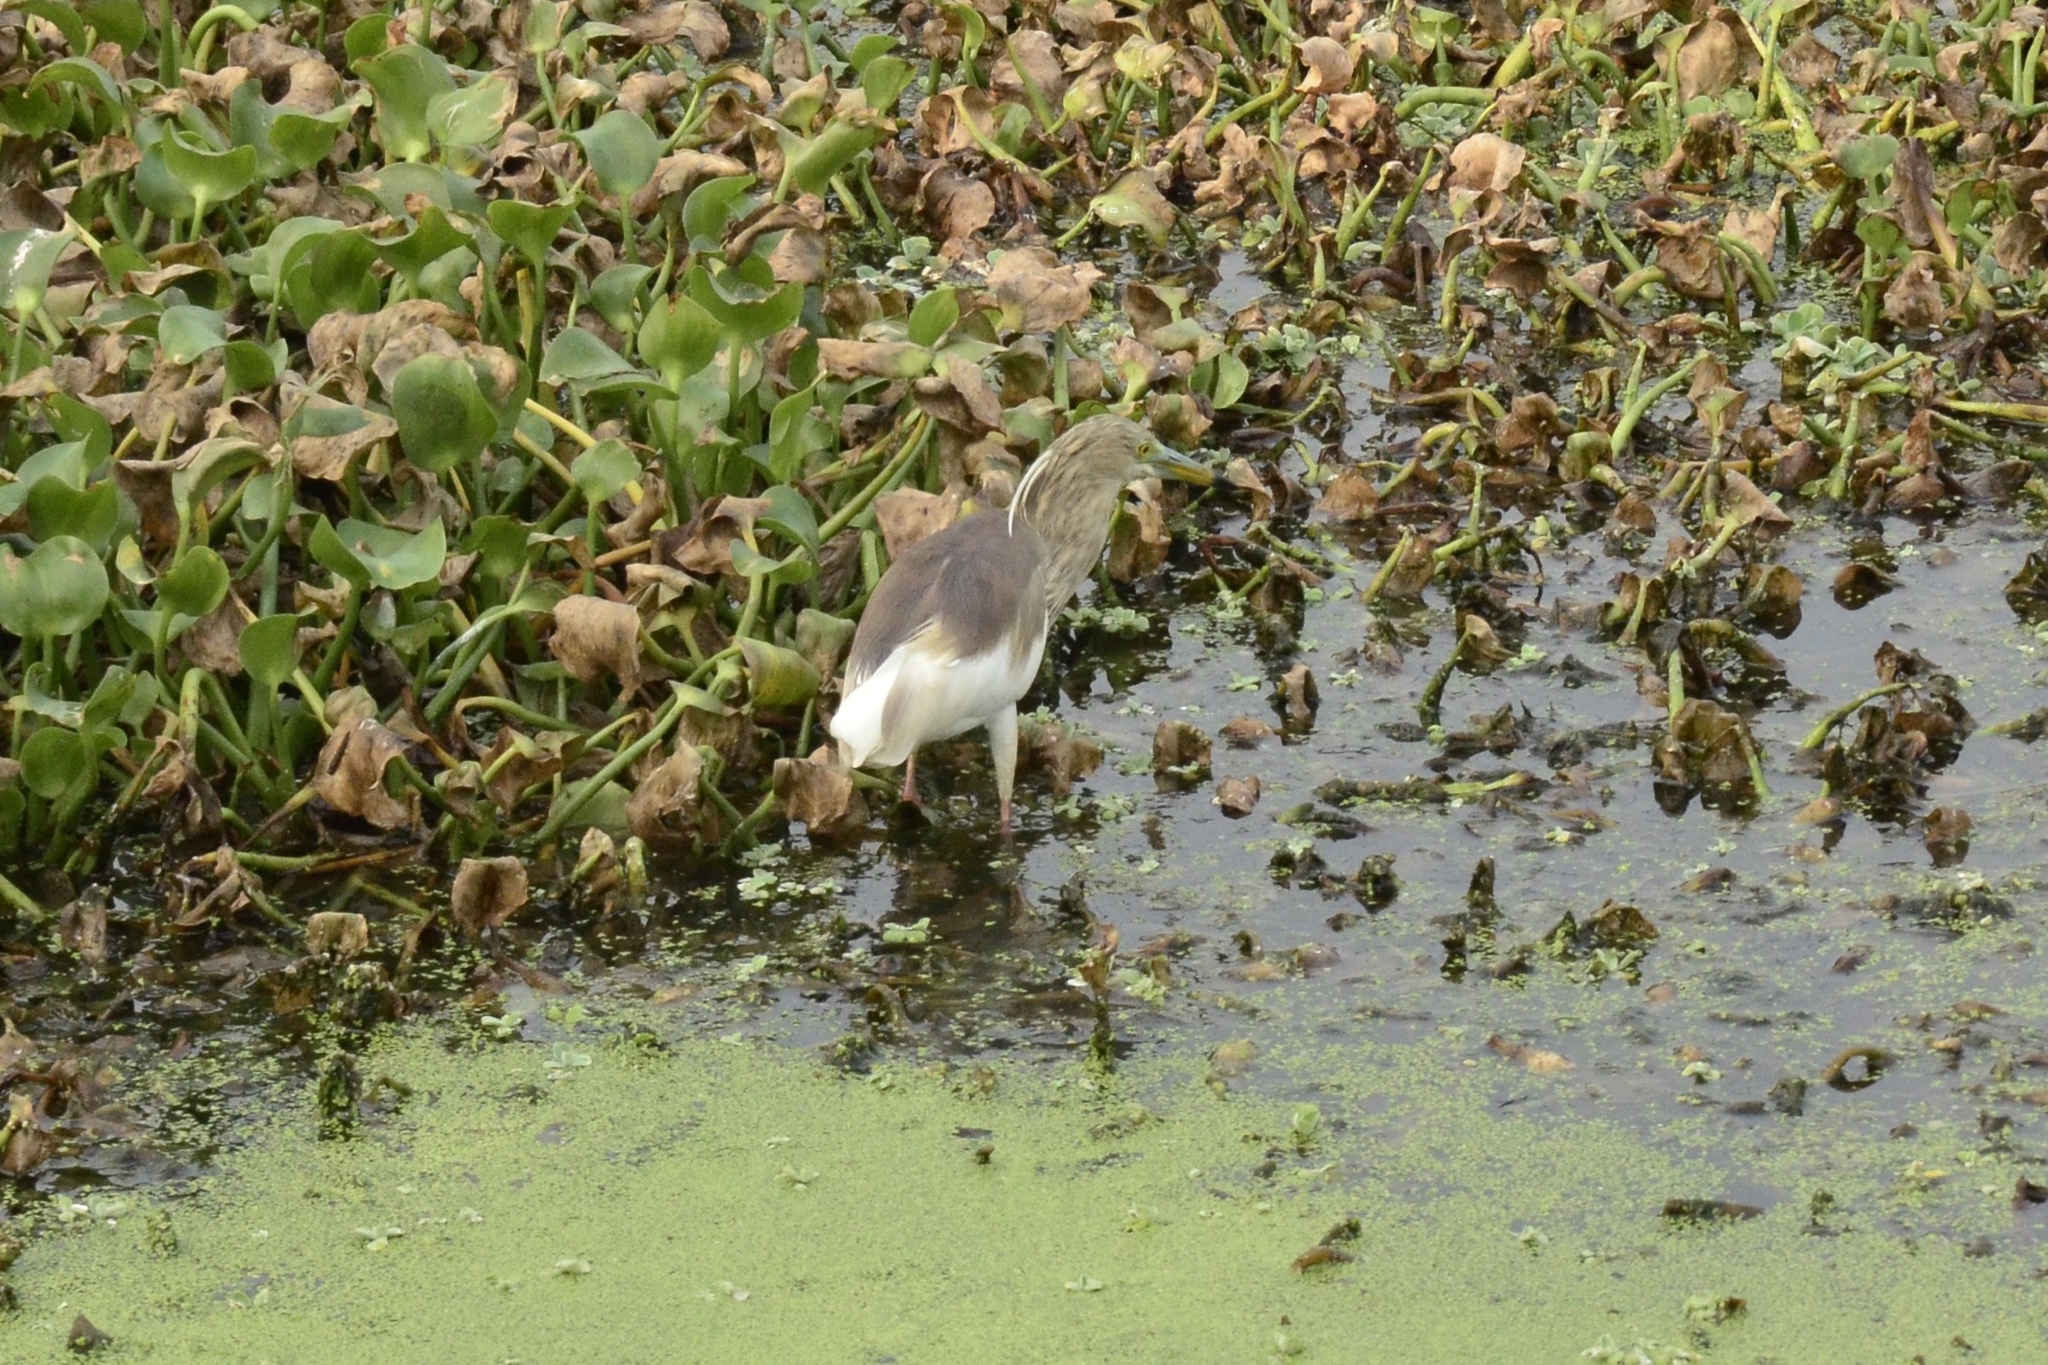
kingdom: Animalia
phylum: Chordata
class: Aves
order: Pelecaniformes
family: Ardeidae
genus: Ardeola
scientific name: Ardeola grayii
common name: Indian pond heron
